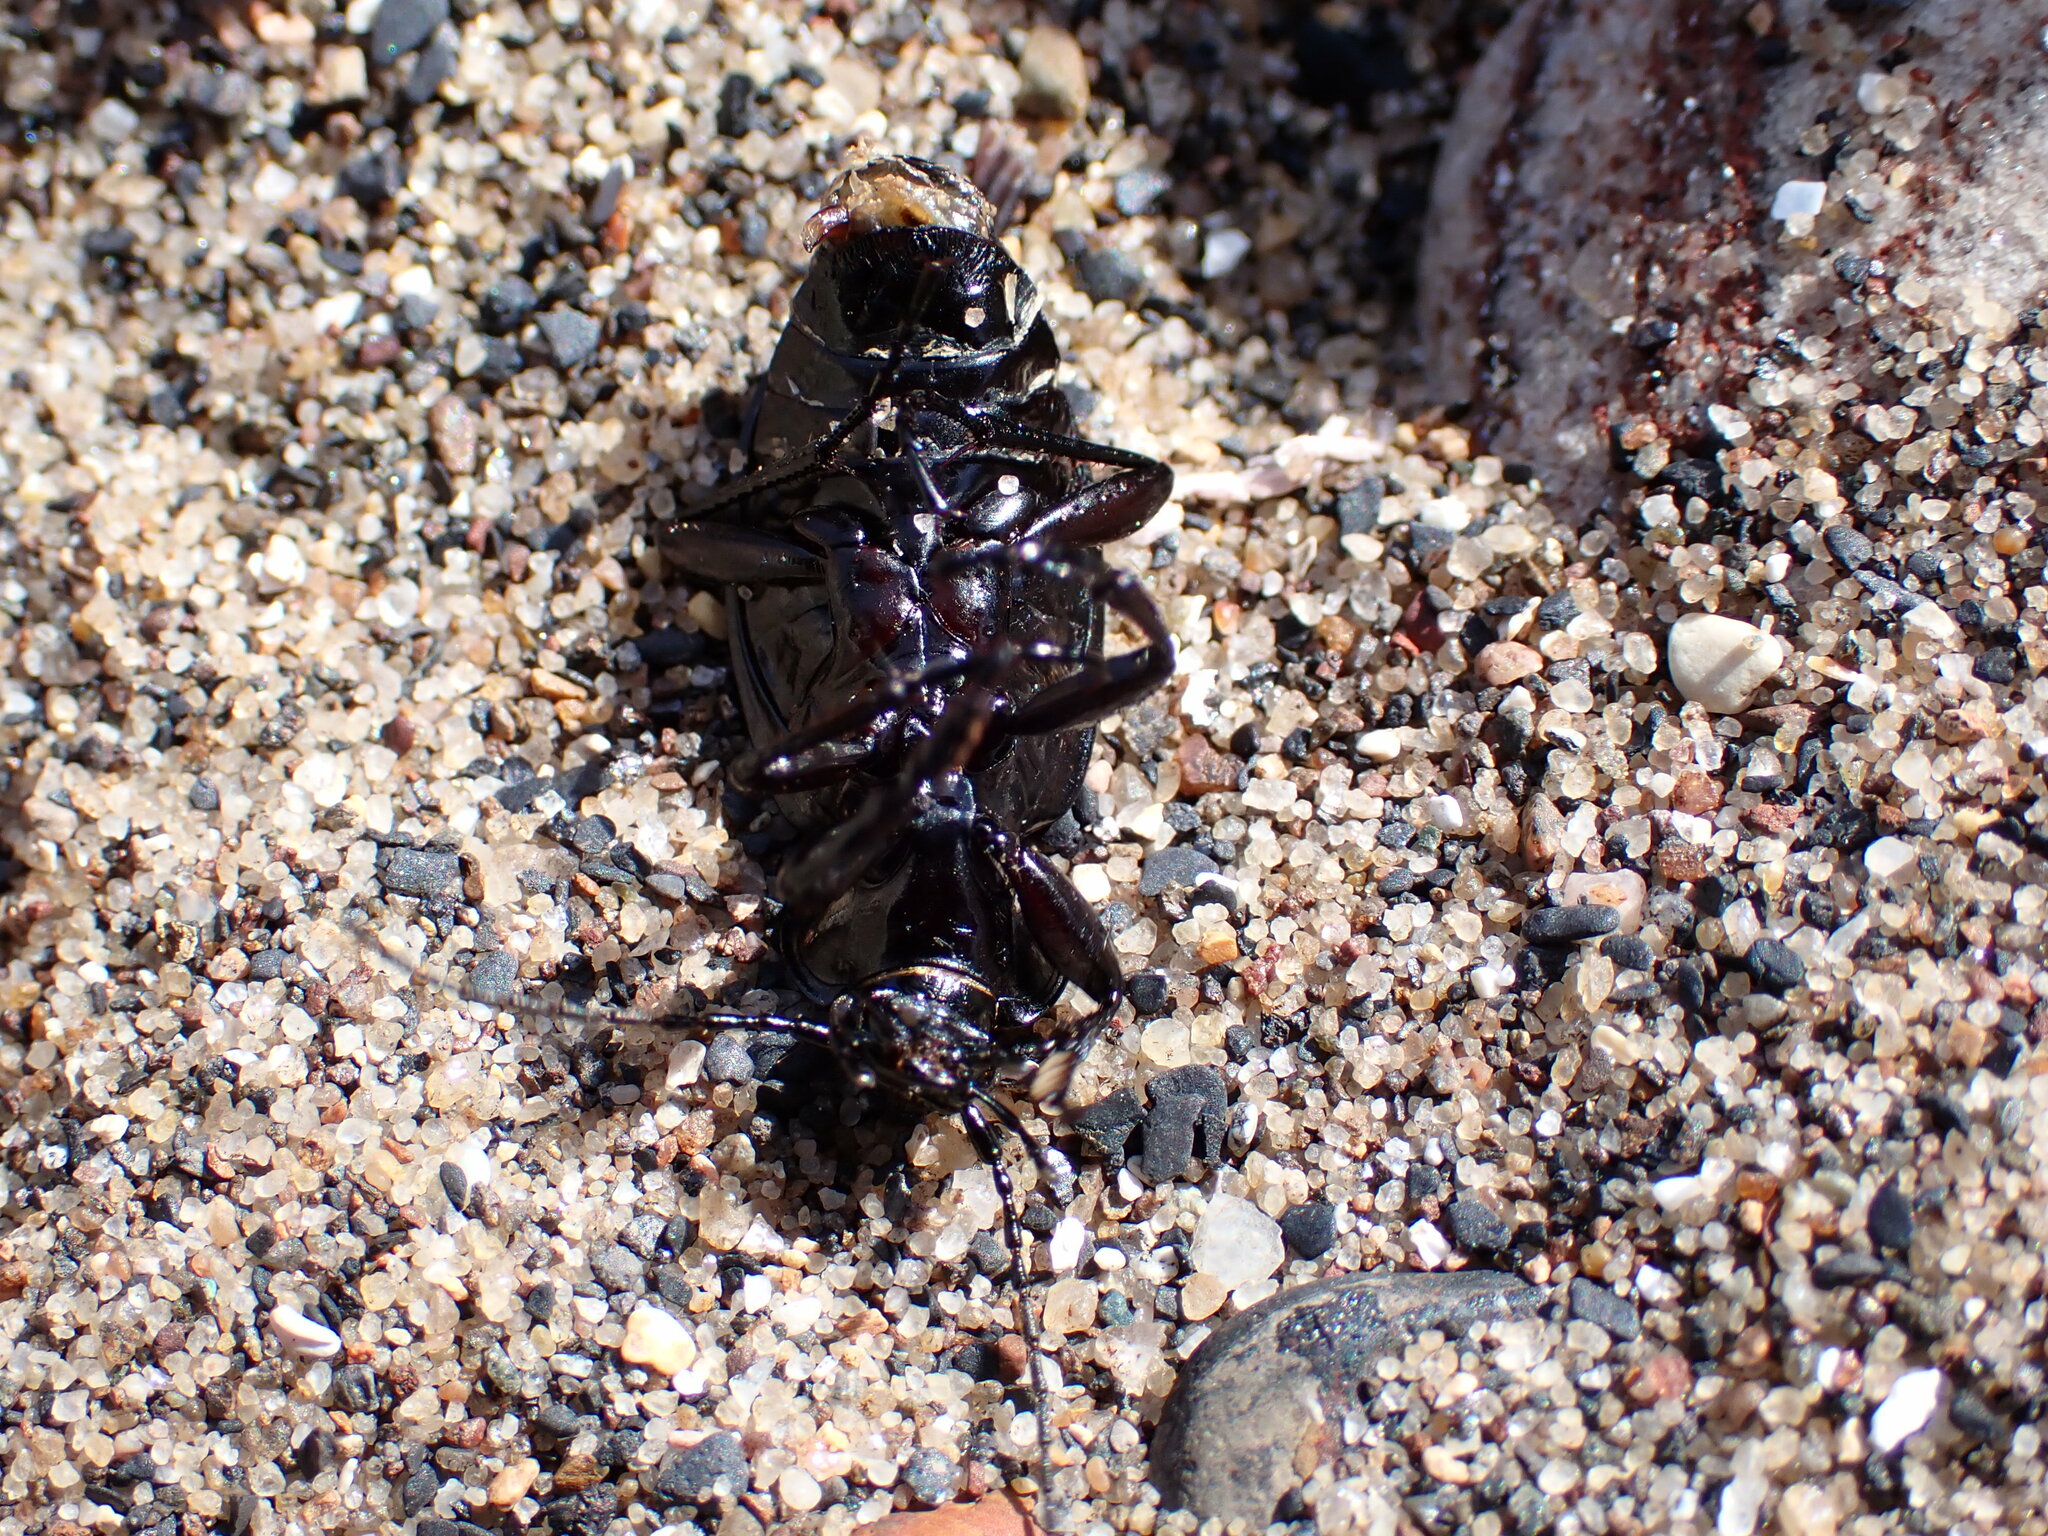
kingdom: Animalia
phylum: Arthropoda
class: Insecta
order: Coleoptera
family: Carabidae
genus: Carabus
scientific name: Carabus nemoralis
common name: European ground beetle
